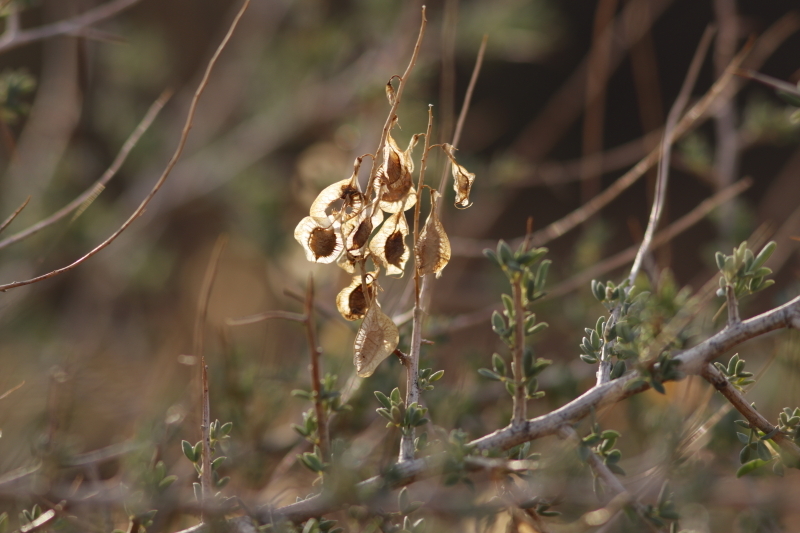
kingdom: Plantae
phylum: Tracheophyta
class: Magnoliopsida
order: Fabales
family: Fabaceae
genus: Wiborgia
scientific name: Wiborgia obcordata
